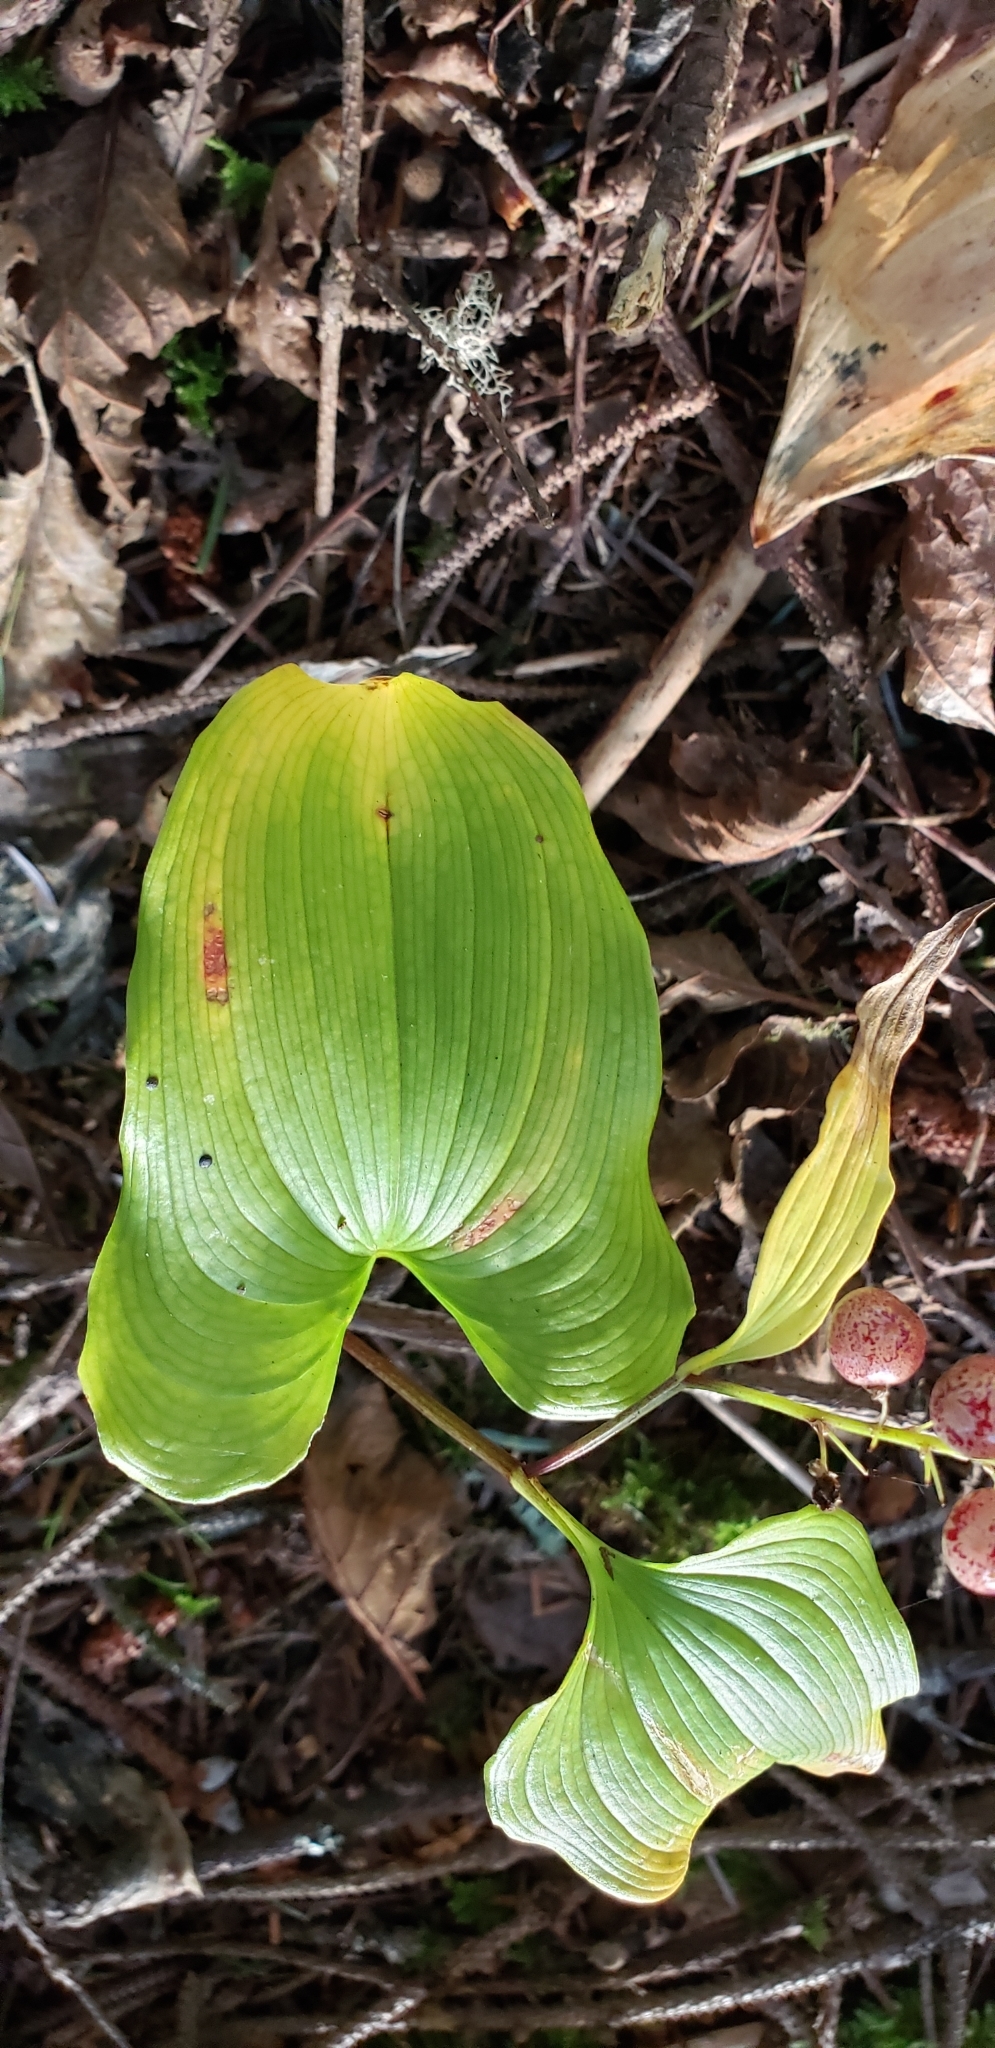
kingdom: Plantae
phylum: Tracheophyta
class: Liliopsida
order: Asparagales
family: Asparagaceae
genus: Maianthemum
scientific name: Maianthemum dilatatum
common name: False lily-of-the-valley
